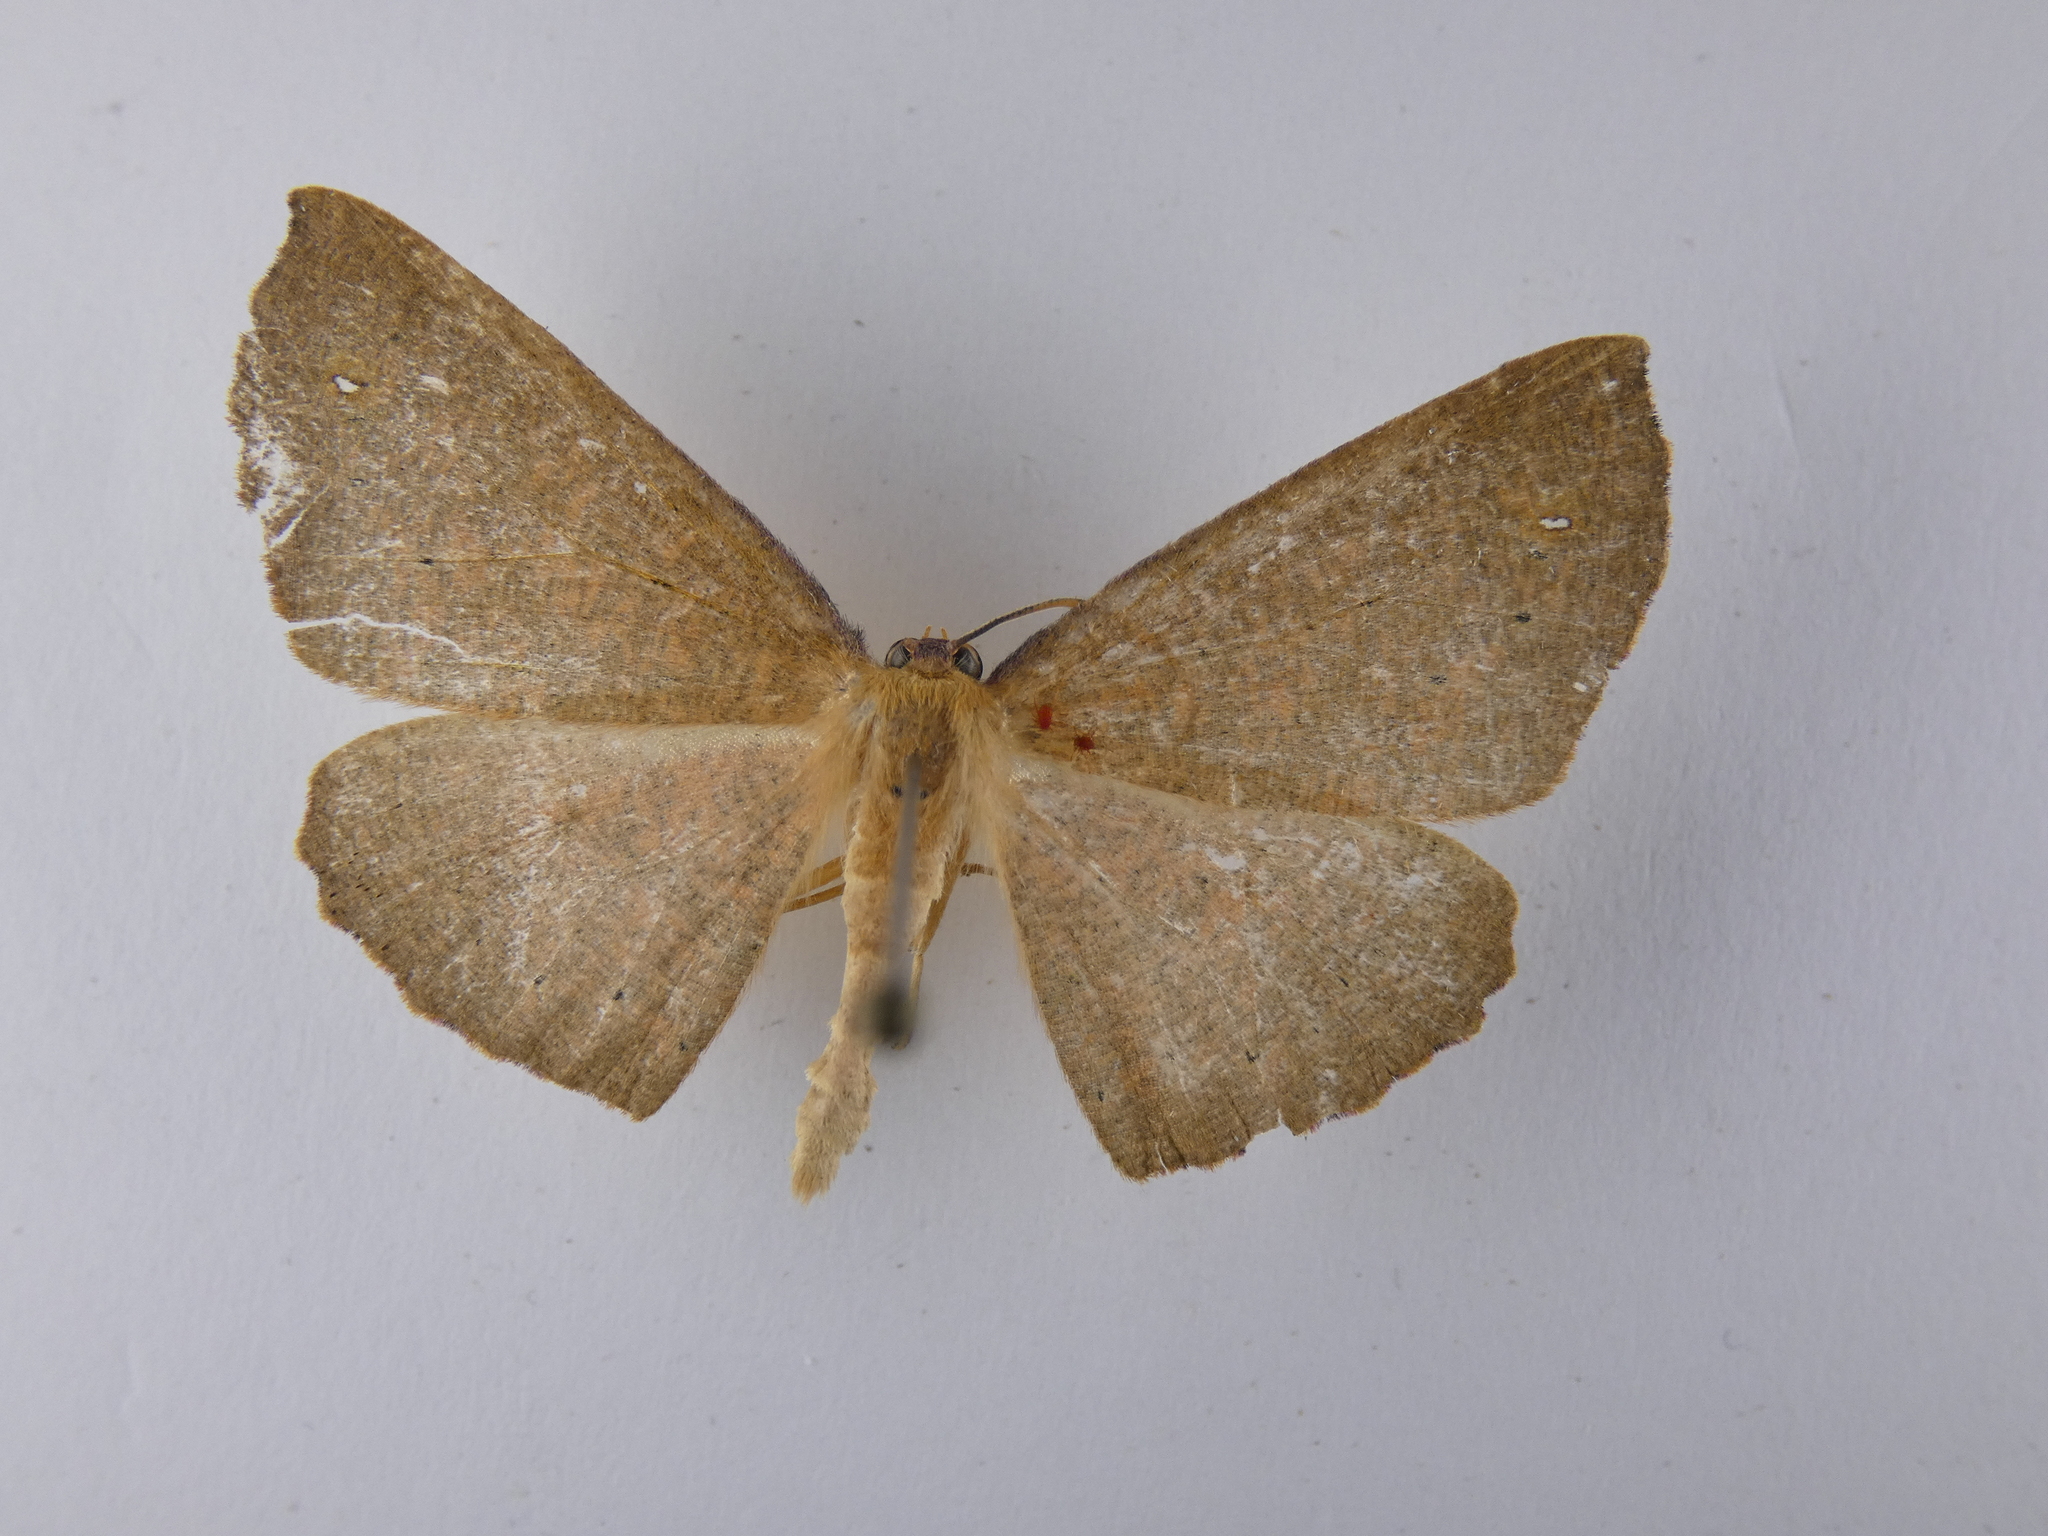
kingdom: Animalia
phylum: Arthropoda
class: Insecta
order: Lepidoptera
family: Geometridae
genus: Xyridacma
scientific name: Xyridacma ustaria
